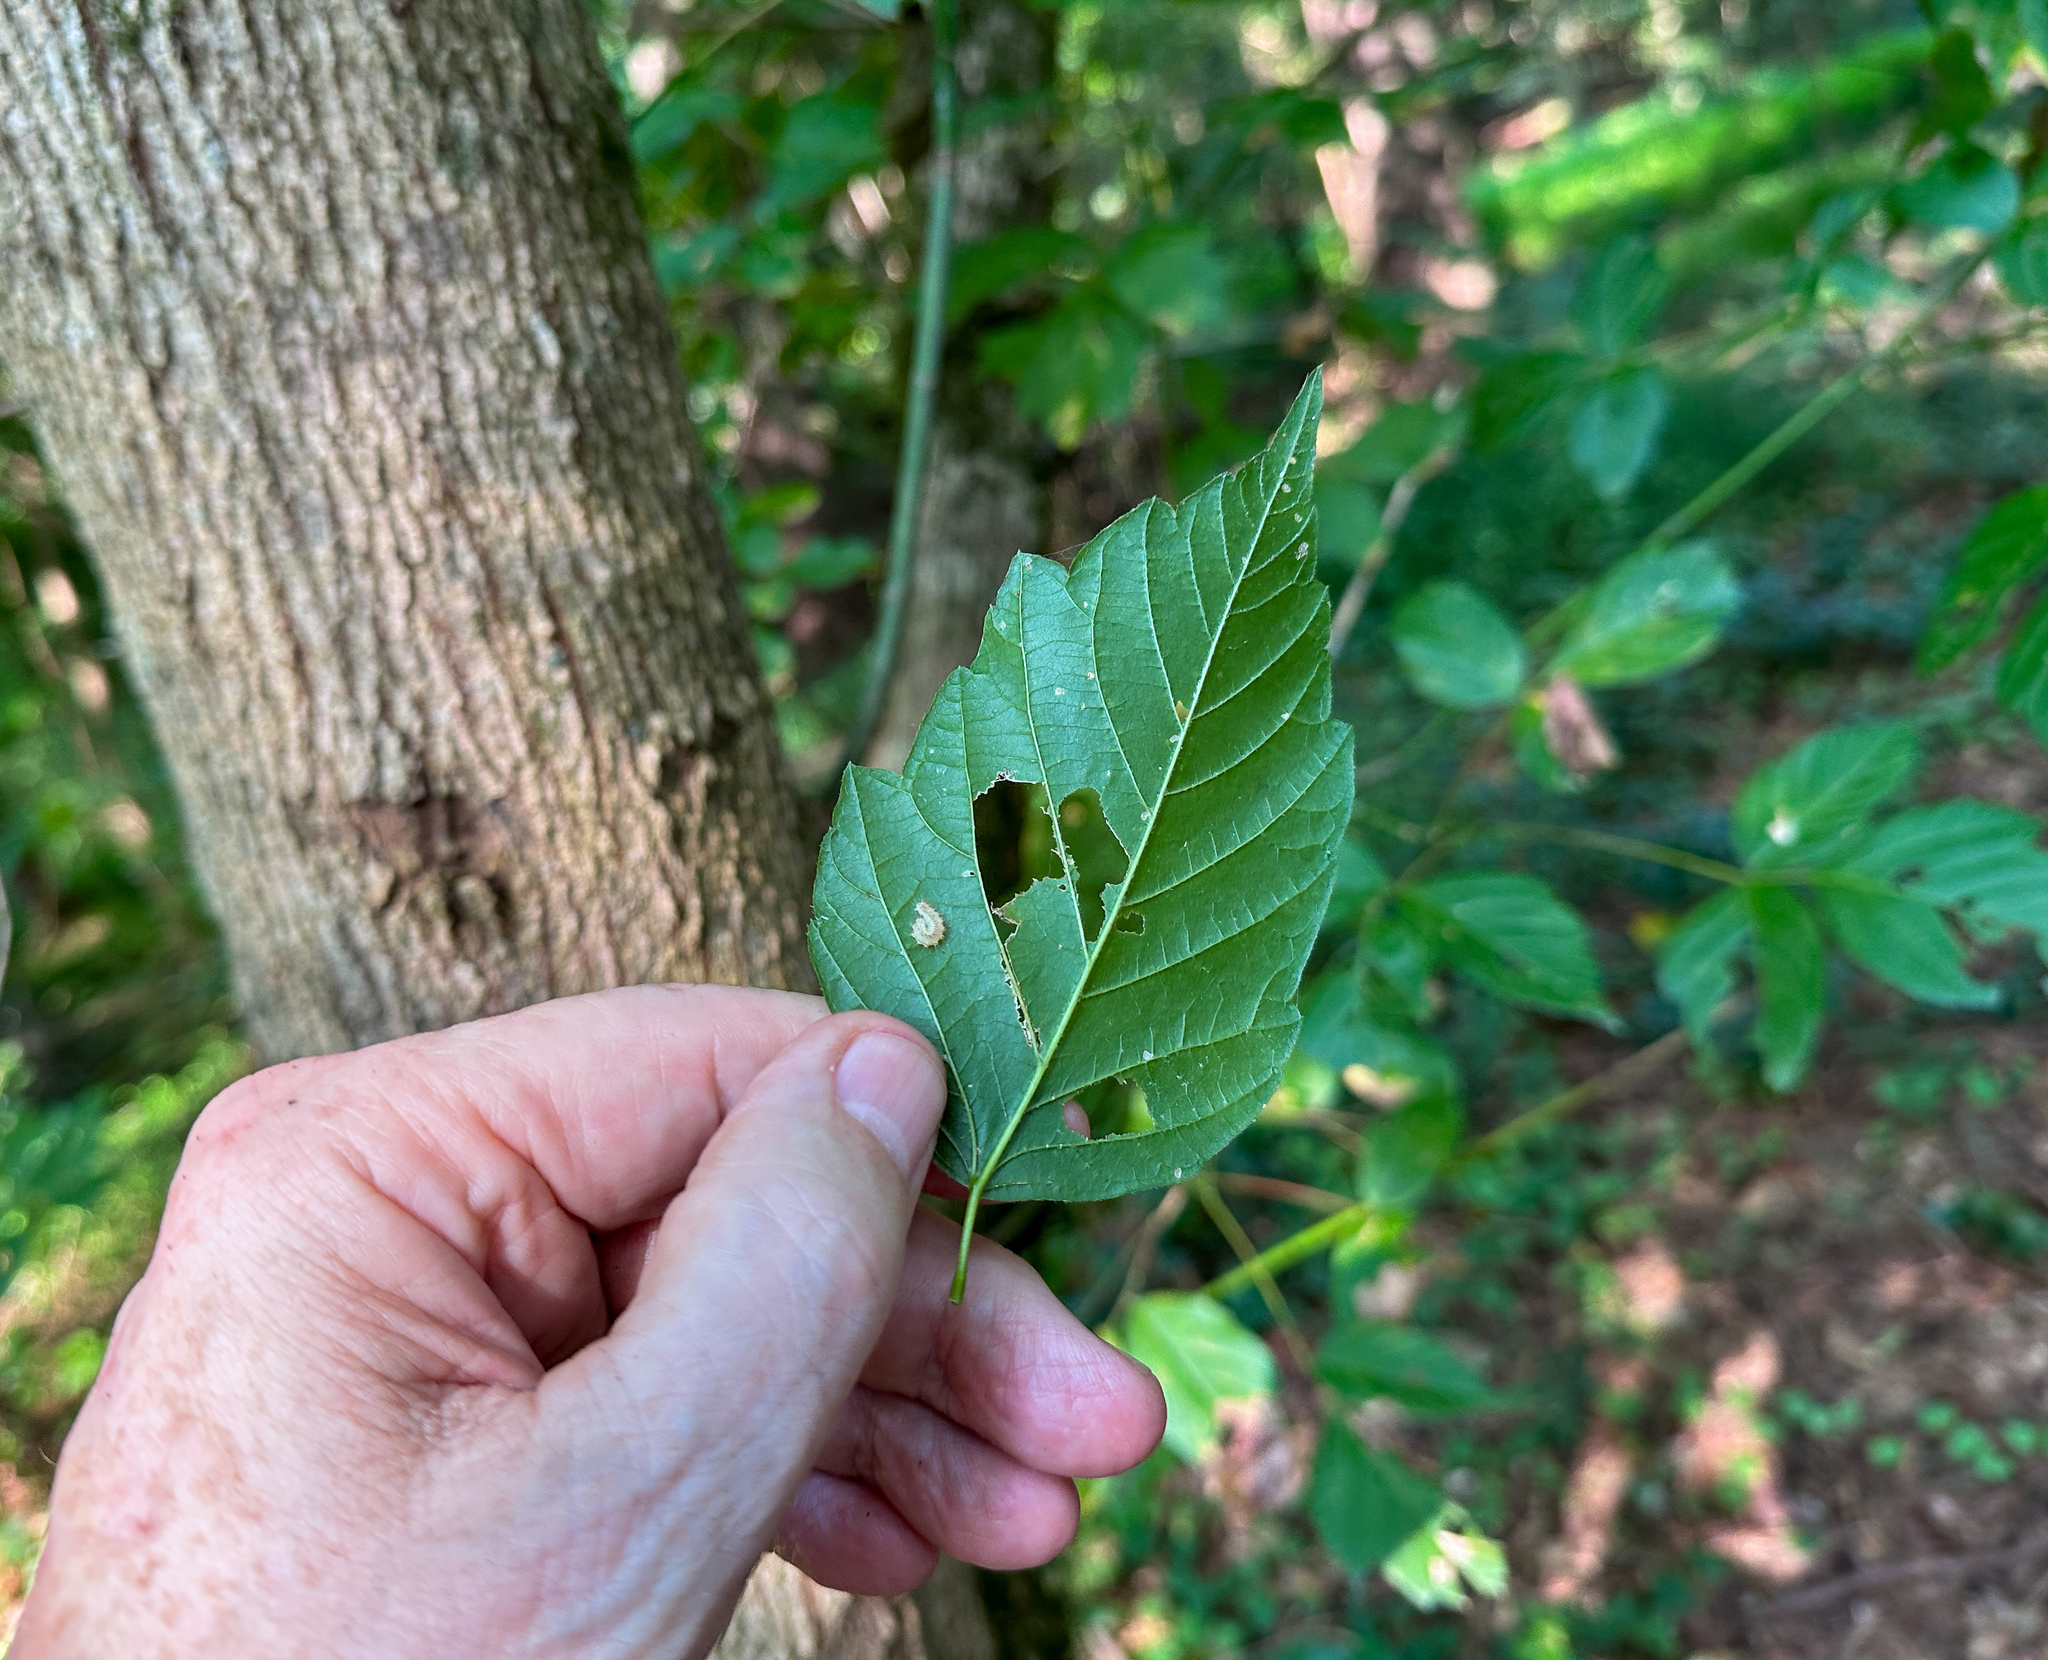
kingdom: Animalia
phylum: Arthropoda
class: Insecta
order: Lepidoptera
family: Noctuidae
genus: Acronicta
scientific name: Acronicta retardata
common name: Maple dagger
